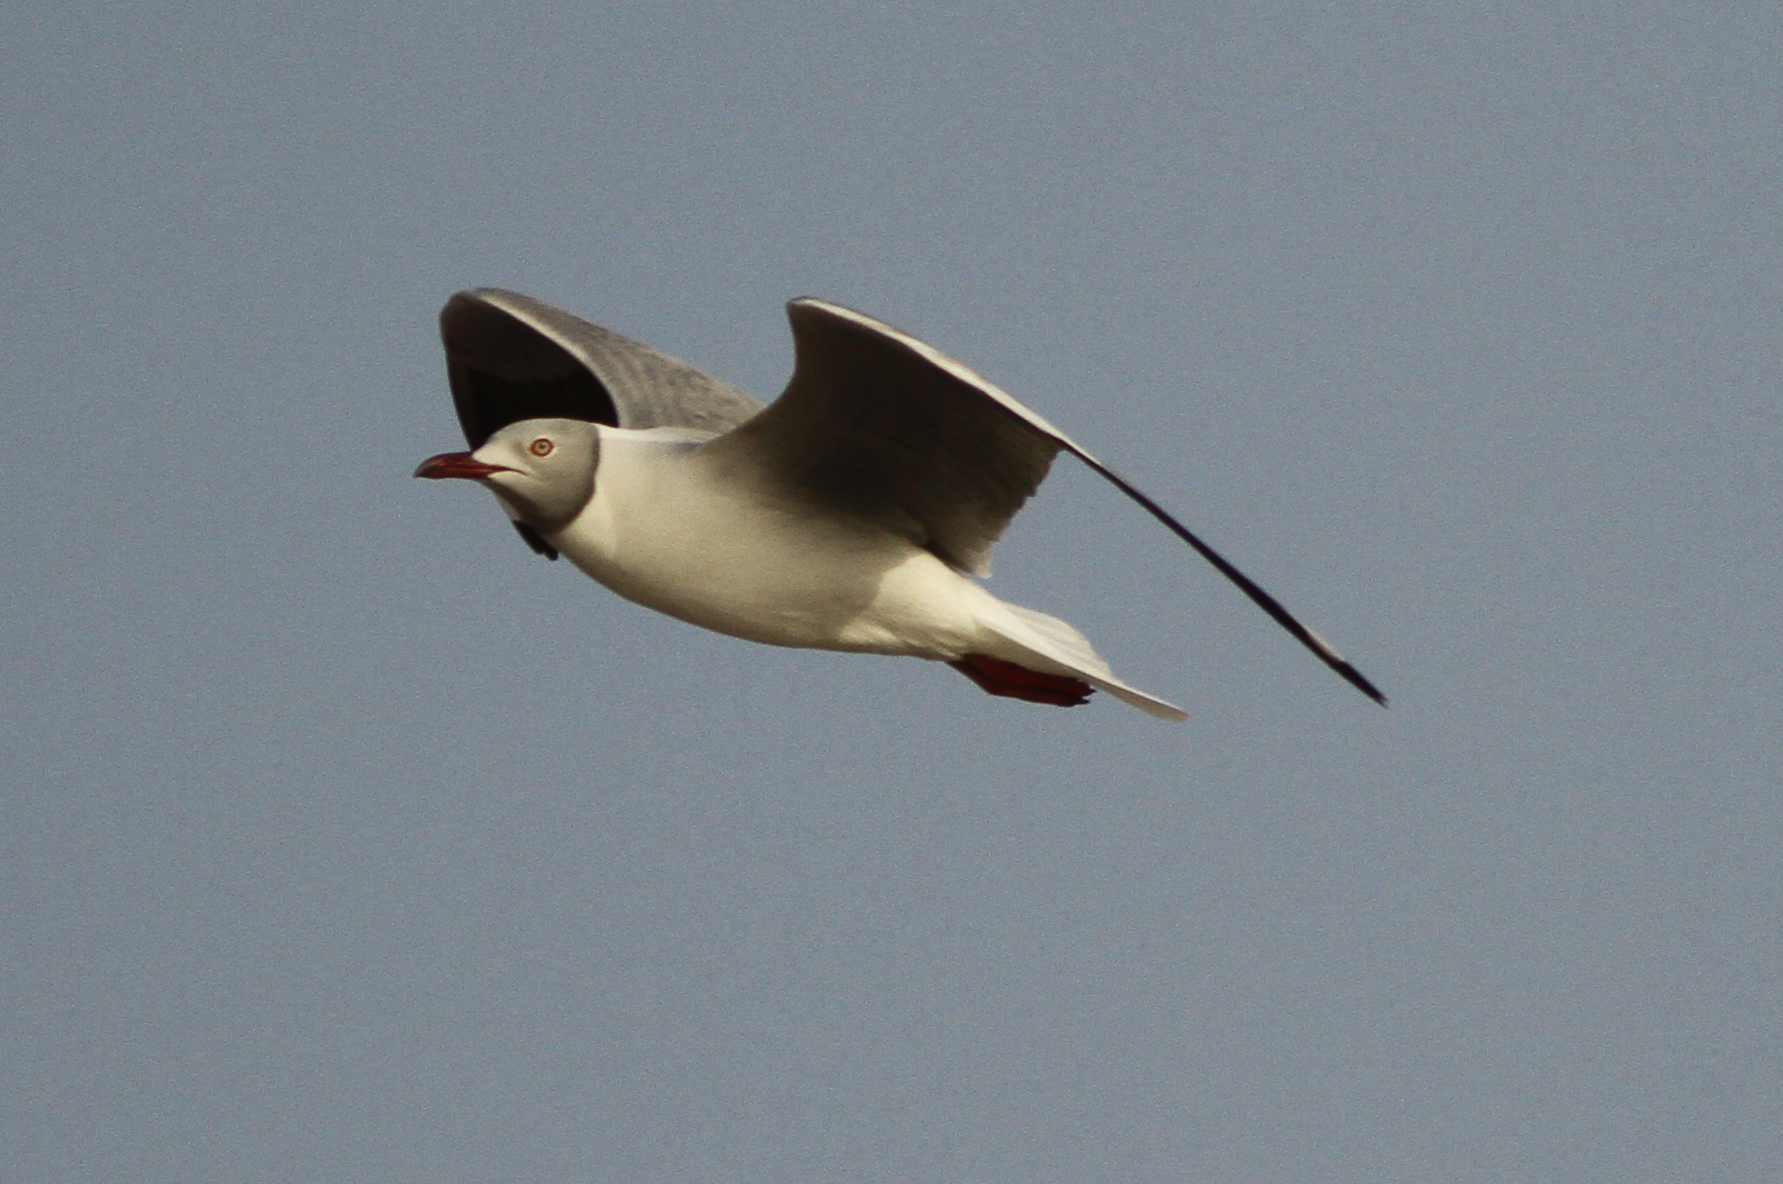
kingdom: Animalia
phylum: Chordata
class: Aves
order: Charadriiformes
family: Laridae
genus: Chroicocephalus
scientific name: Chroicocephalus cirrocephalus
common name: Grey-headed gull
